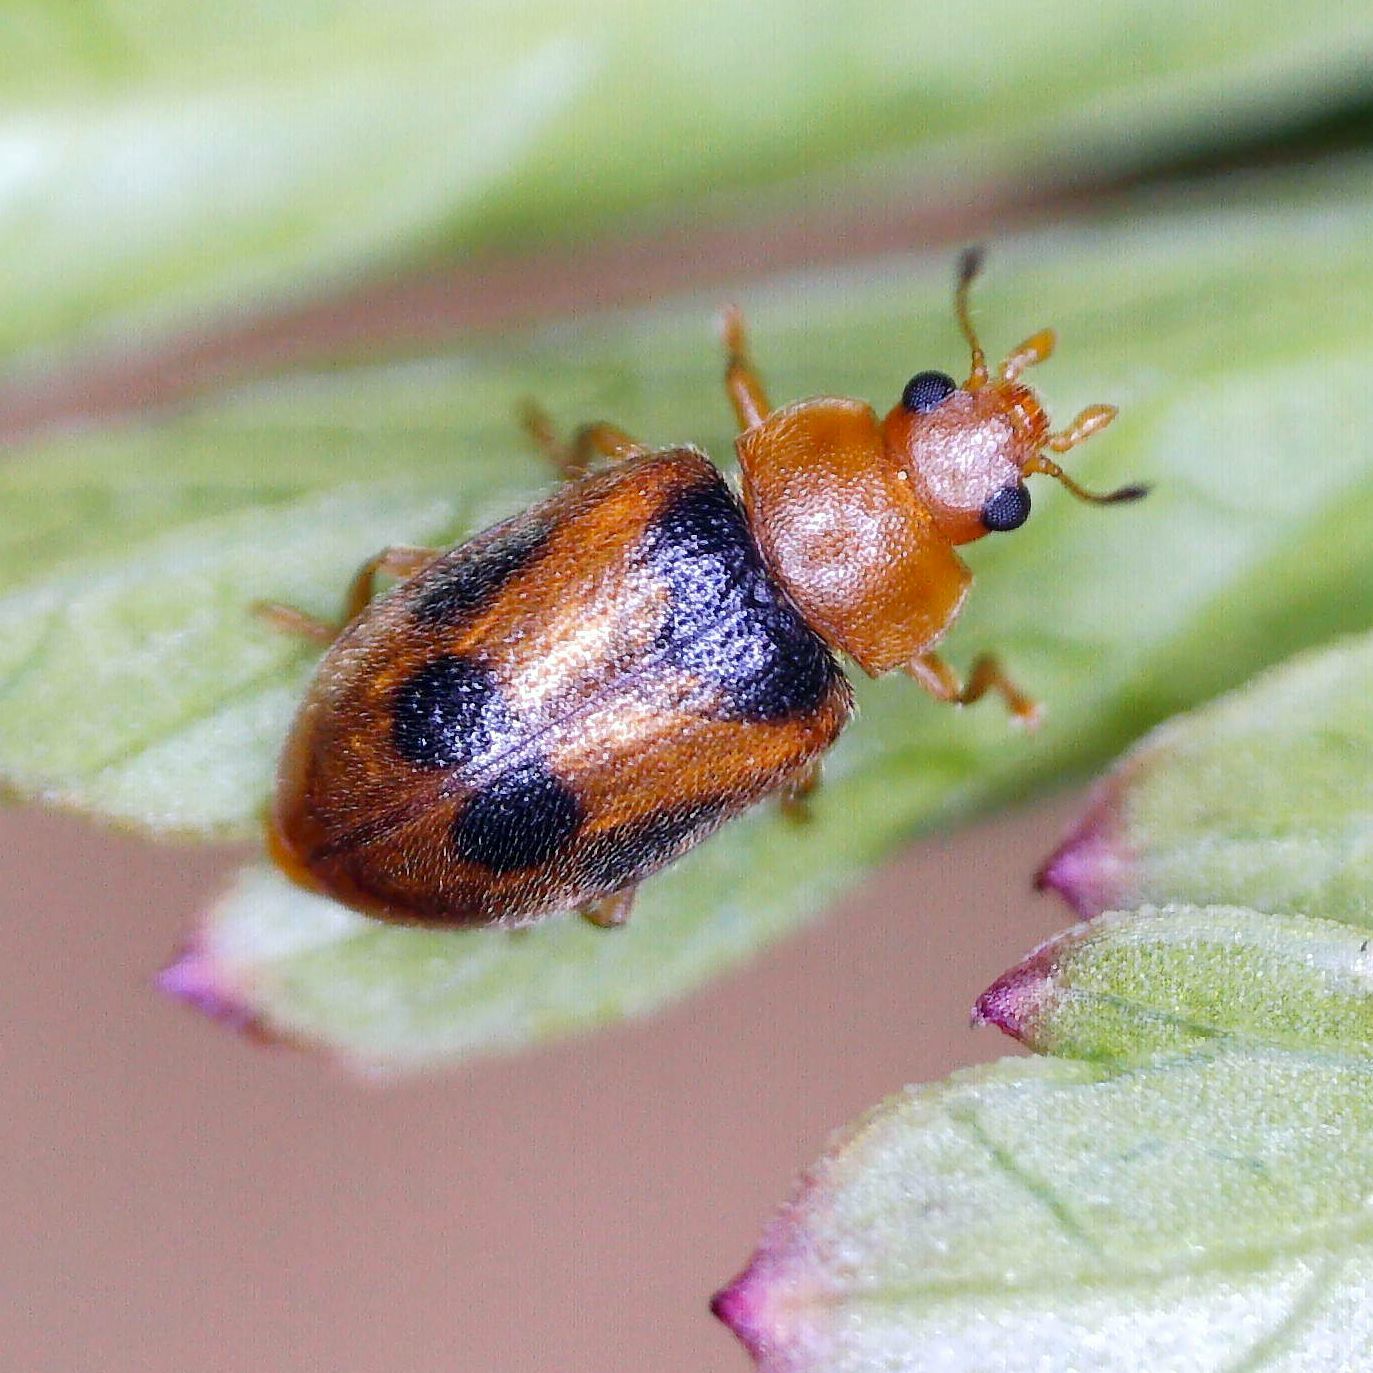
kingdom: Animalia
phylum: Arthropoda
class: Insecta
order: Coleoptera
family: Coccinellidae
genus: Coccidula
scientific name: Coccidula scutellata
